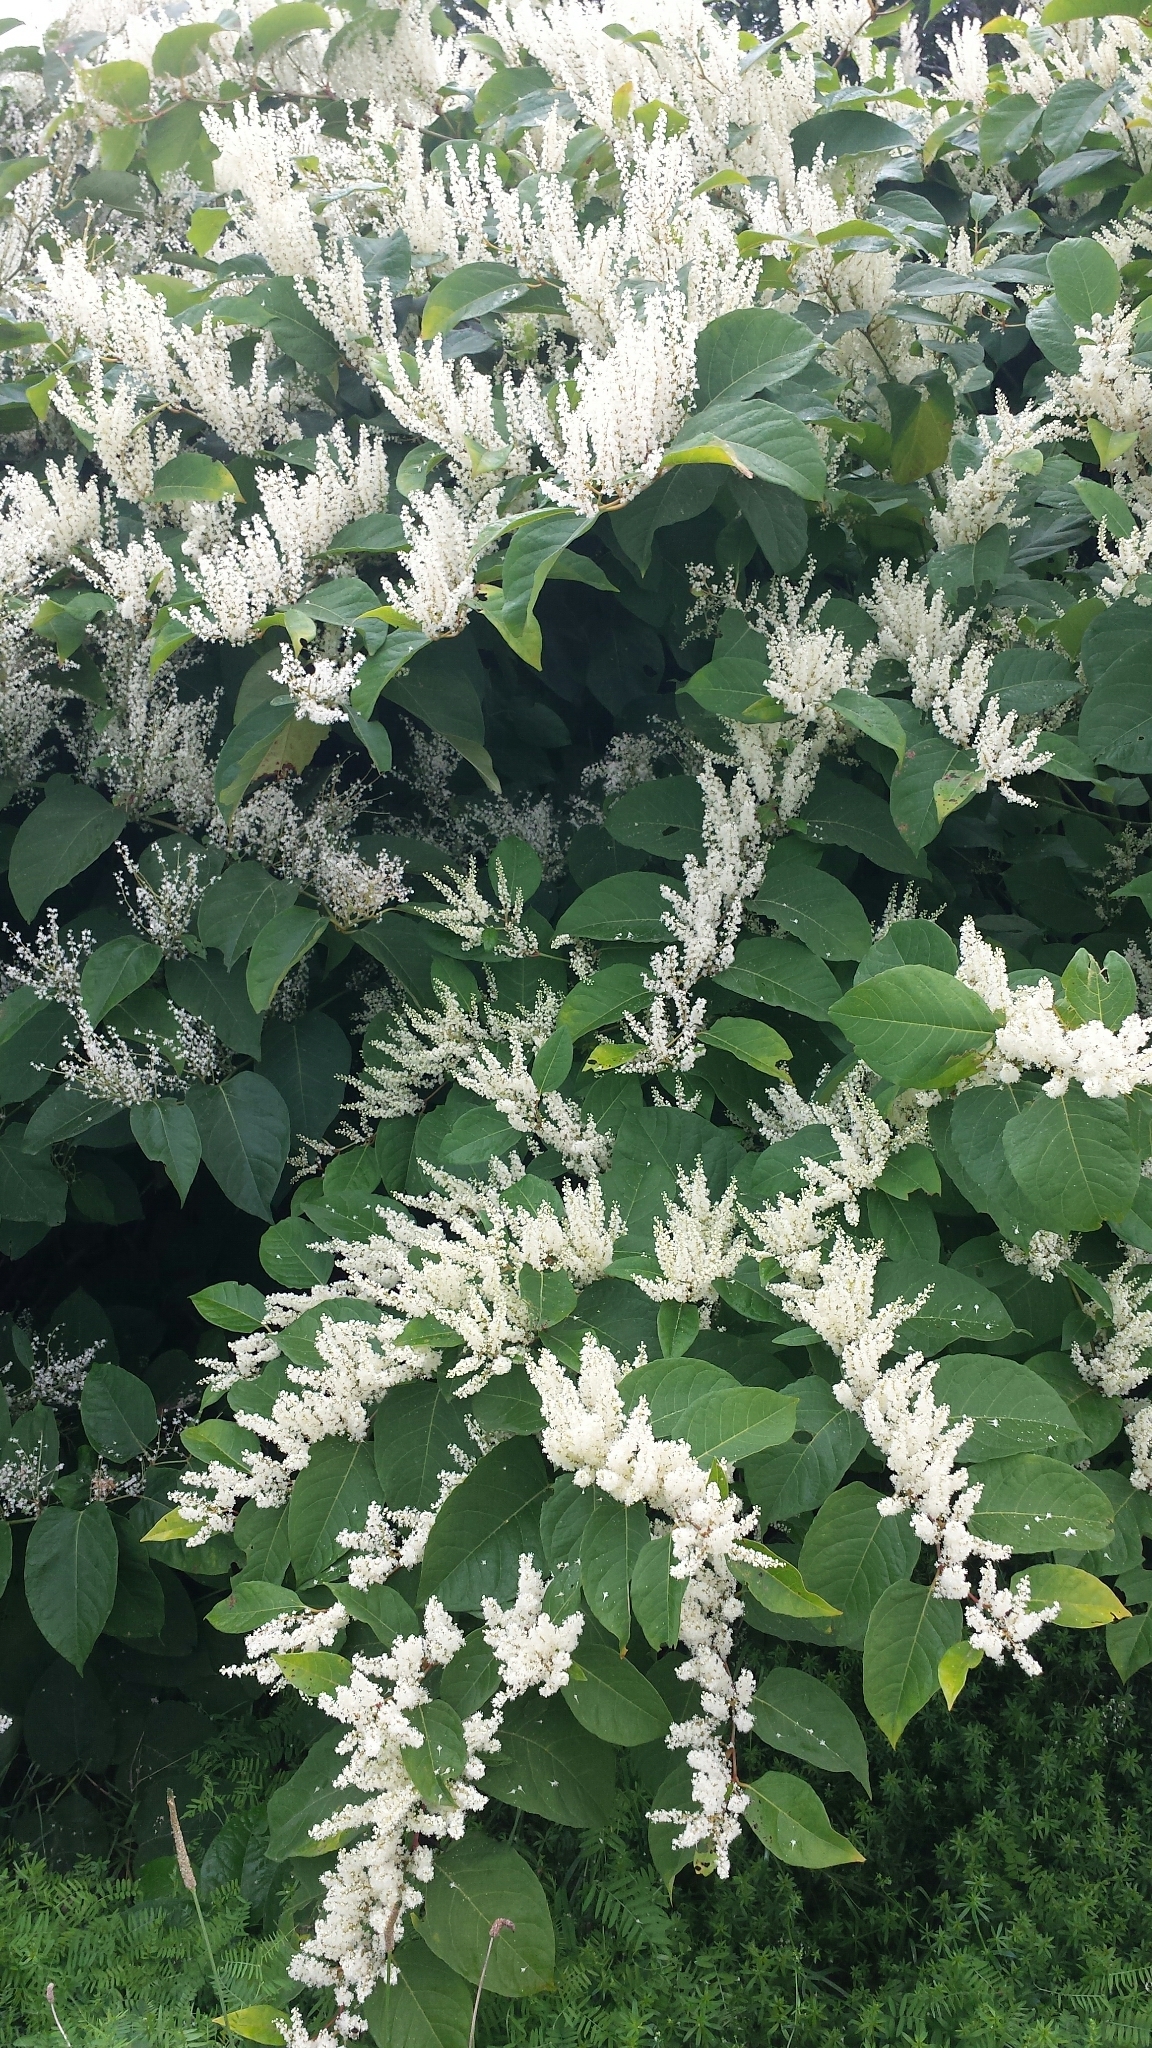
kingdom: Plantae
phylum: Tracheophyta
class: Magnoliopsida
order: Caryophyllales
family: Polygonaceae
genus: Reynoutria
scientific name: Reynoutria japonica
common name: Japanese knotweed
